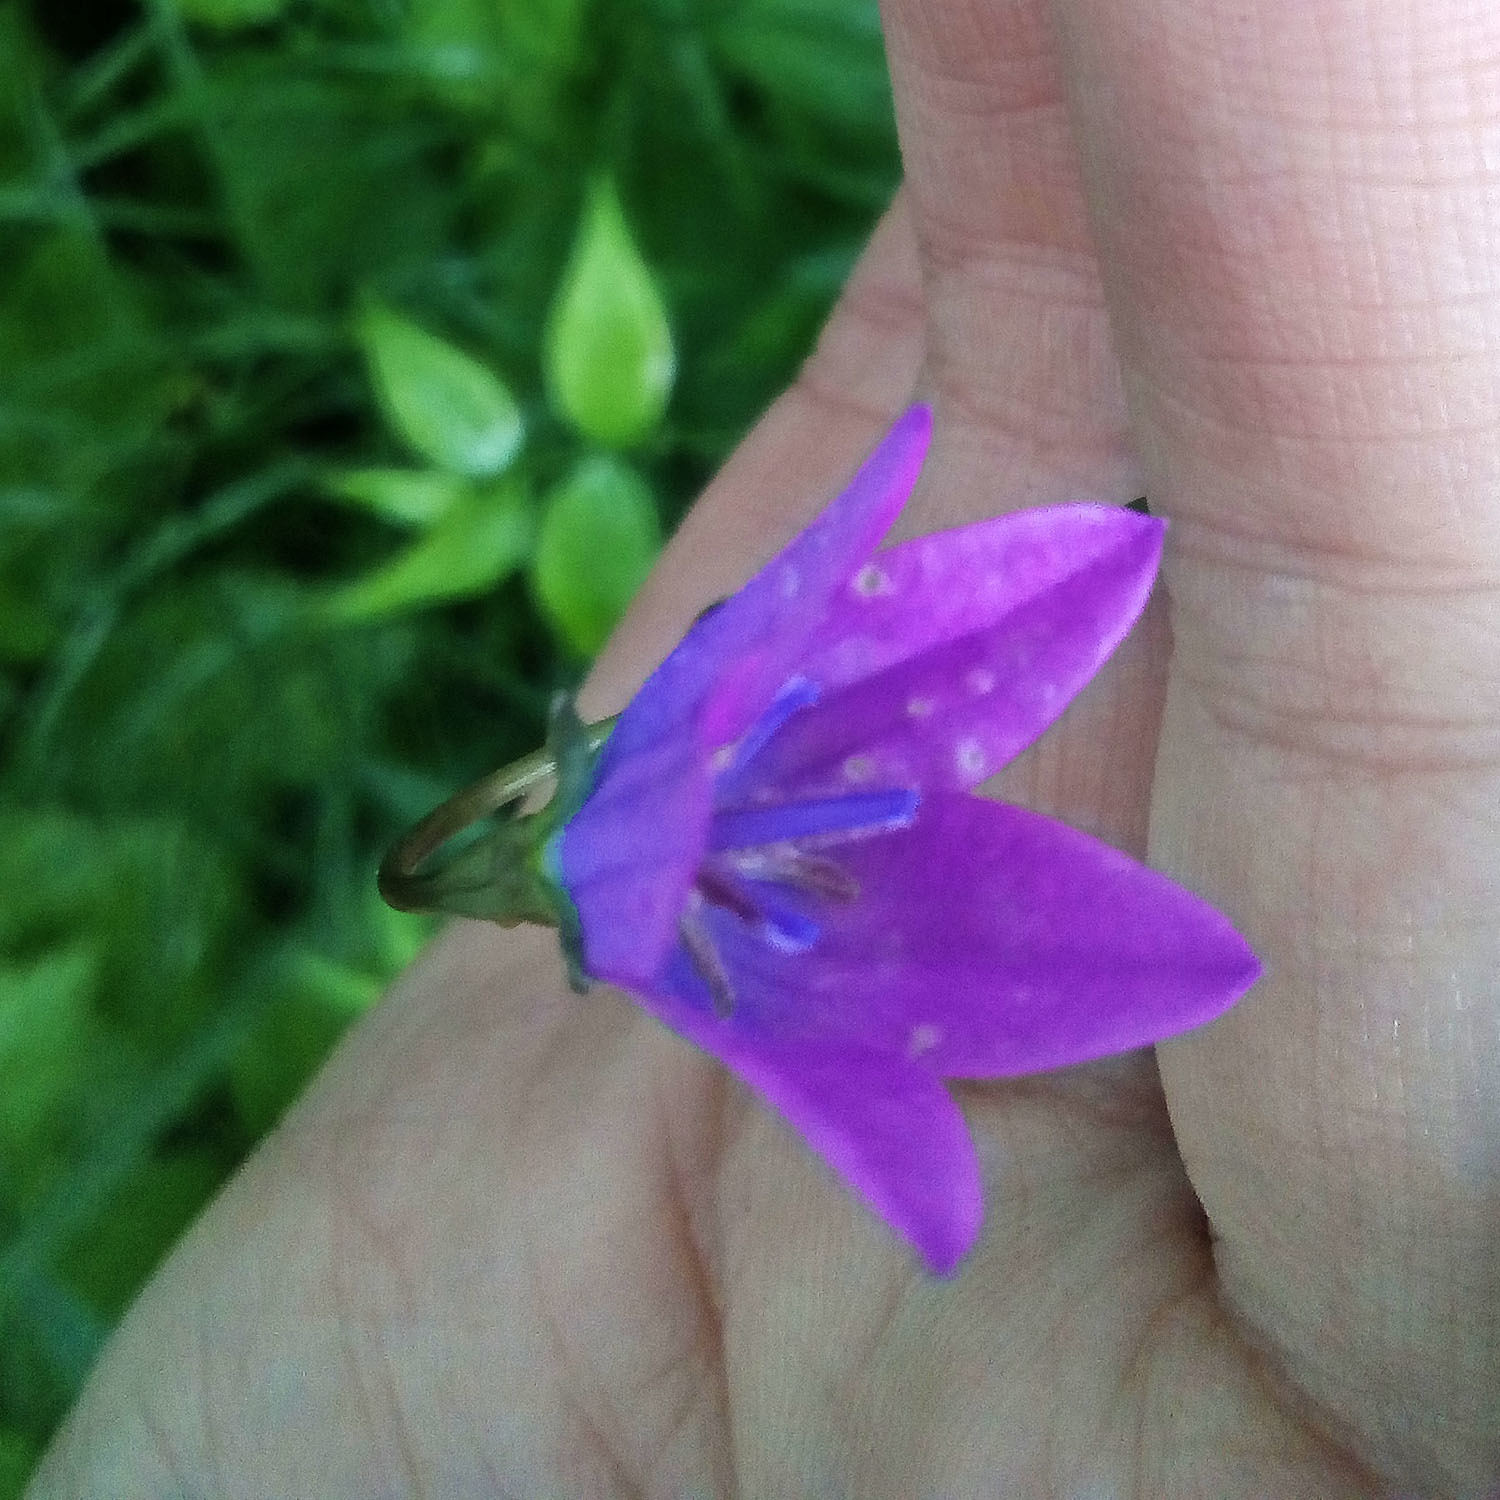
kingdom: Plantae
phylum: Tracheophyta
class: Magnoliopsida
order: Asterales
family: Campanulaceae
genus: Campanula
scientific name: Campanula stevenii
